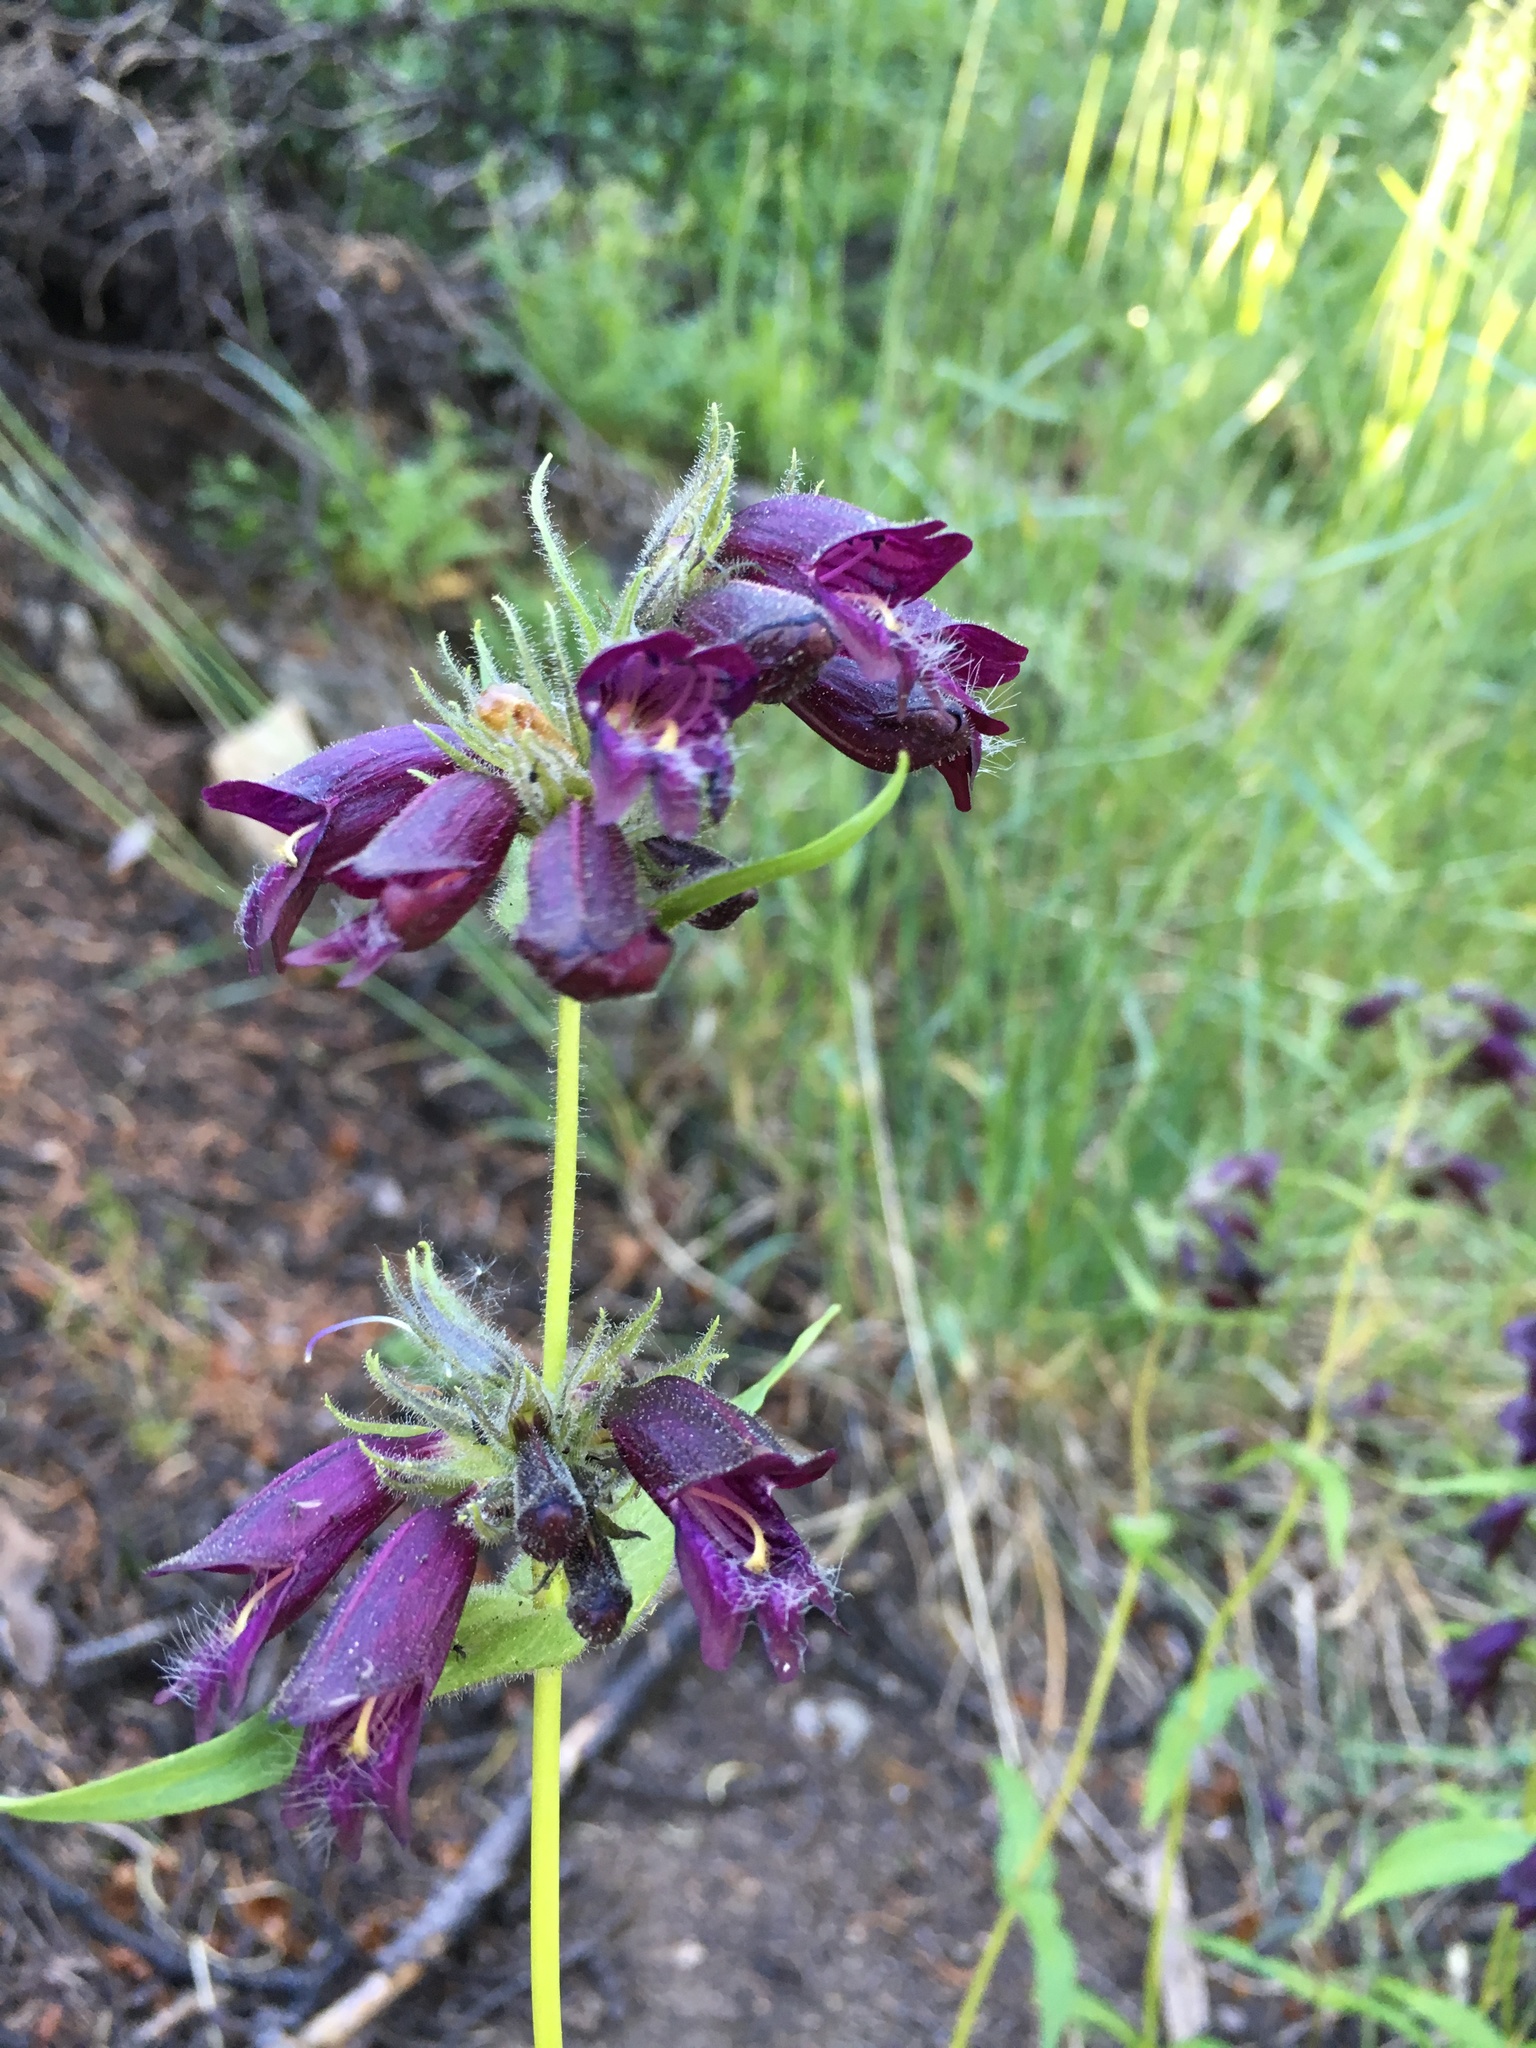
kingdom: Plantae
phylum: Tracheophyta
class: Magnoliopsida
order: Lamiales
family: Plantaginaceae
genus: Penstemon
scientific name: Penstemon whippleanus
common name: Whipple's penstemon
